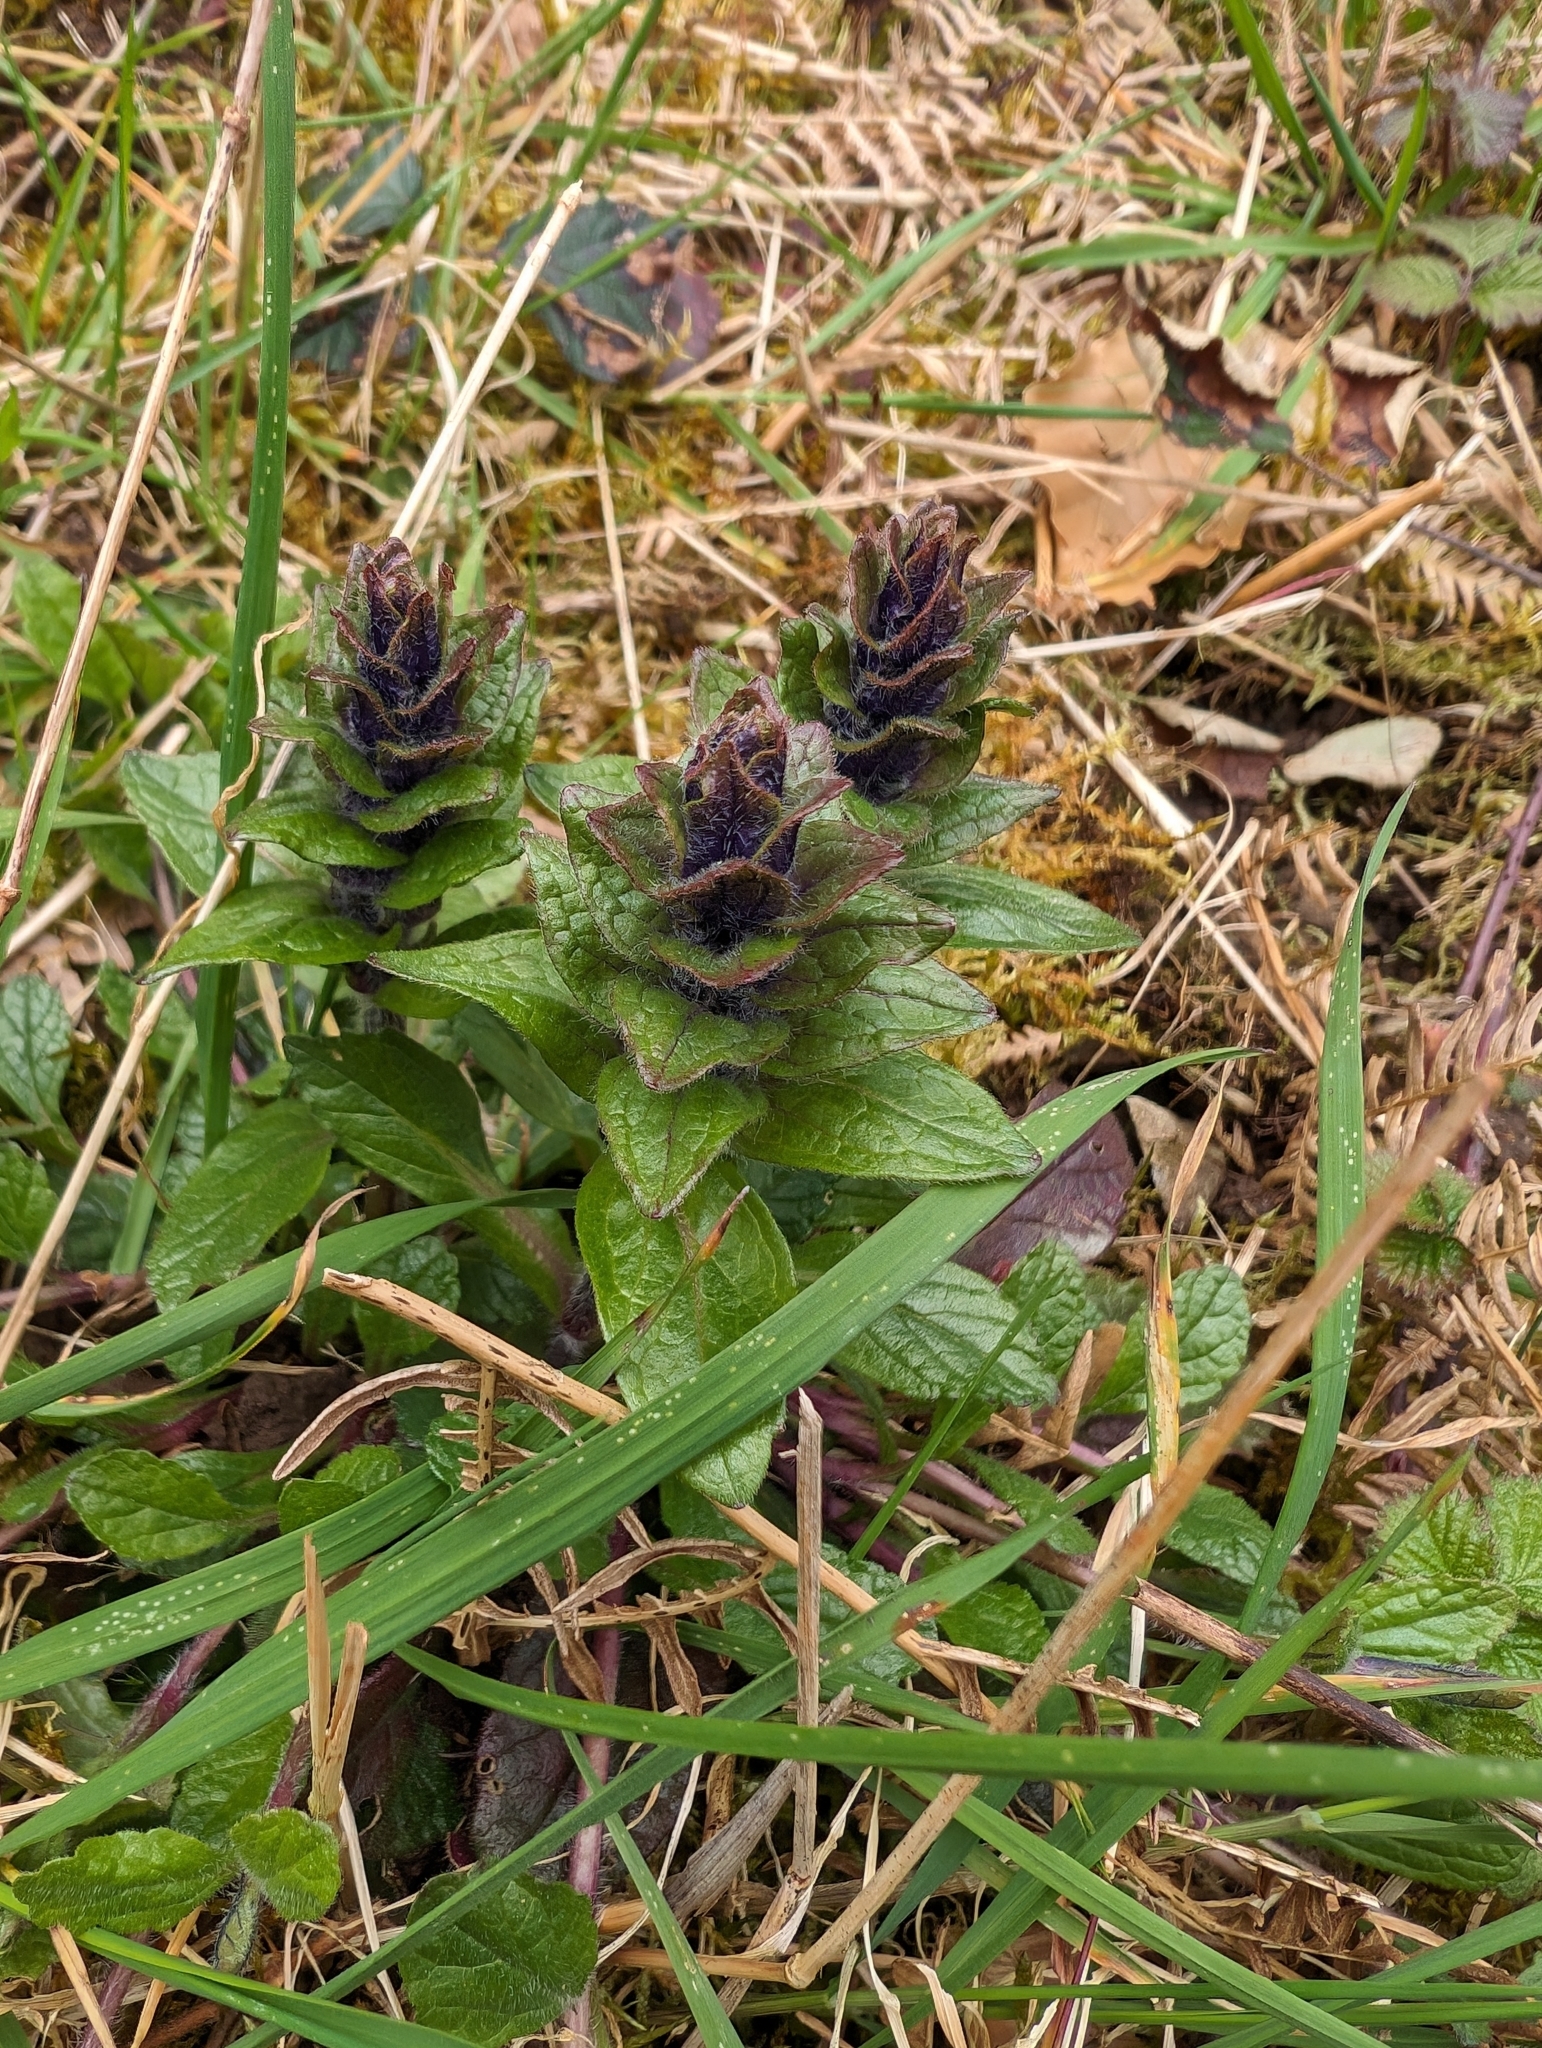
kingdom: Plantae
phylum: Tracheophyta
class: Magnoliopsida
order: Lamiales
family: Lamiaceae
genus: Ajuga
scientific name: Ajuga reptans
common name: Bugle
